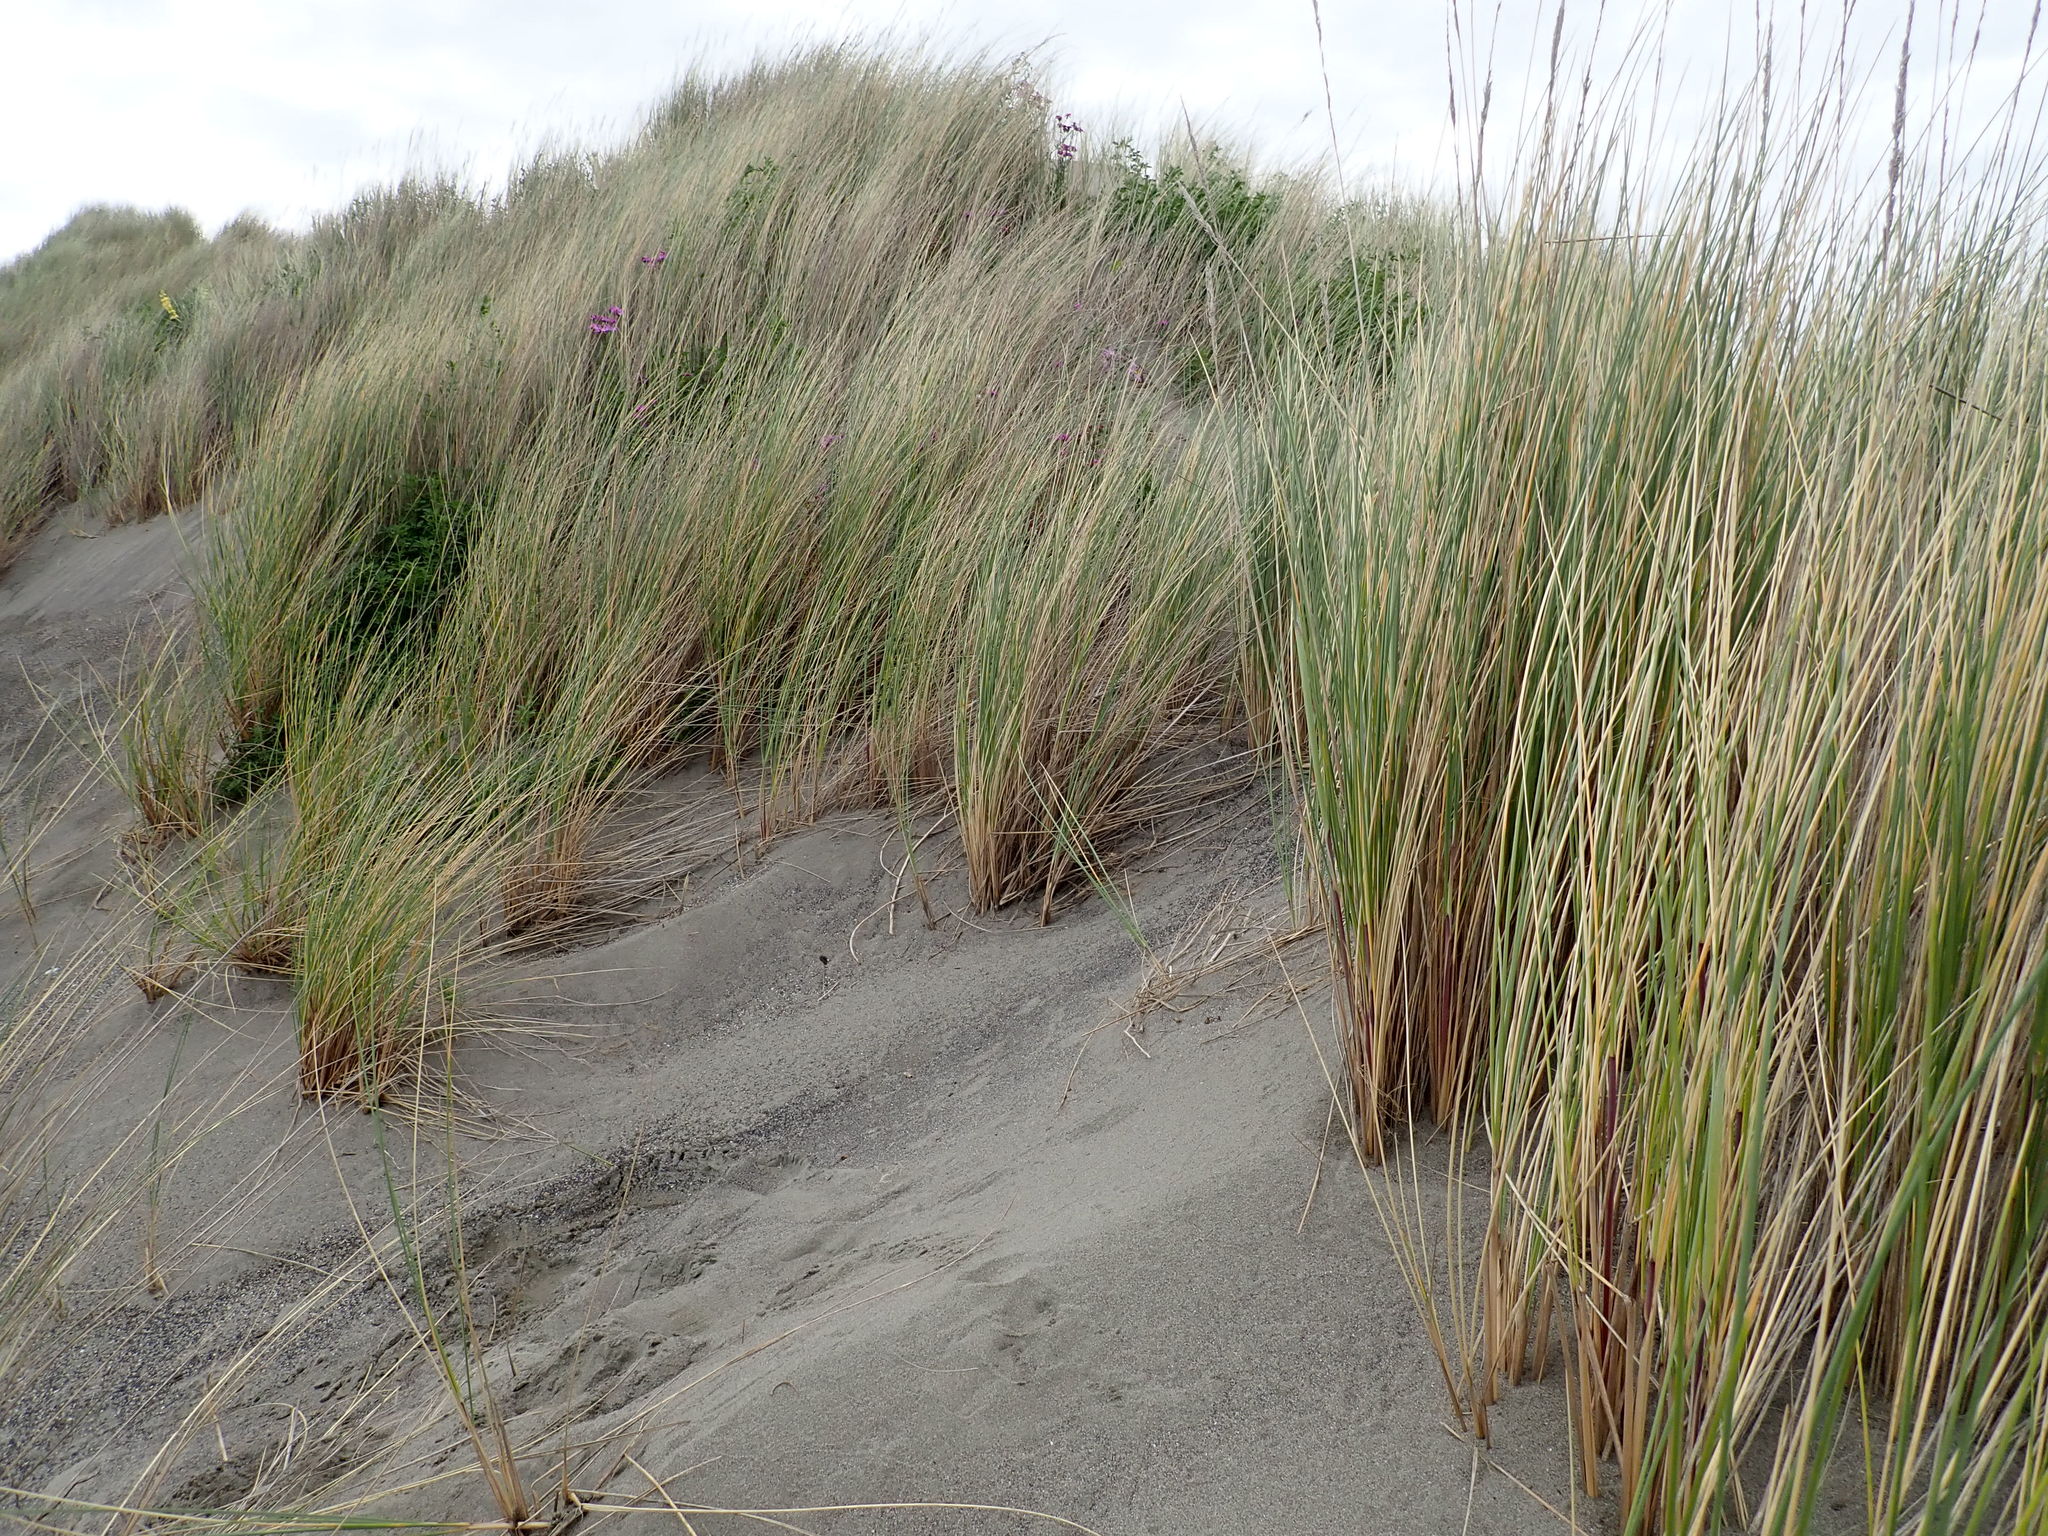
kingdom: Plantae
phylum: Tracheophyta
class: Liliopsida
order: Poales
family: Poaceae
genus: Calamagrostis
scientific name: Calamagrostis arenaria
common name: European beachgrass
